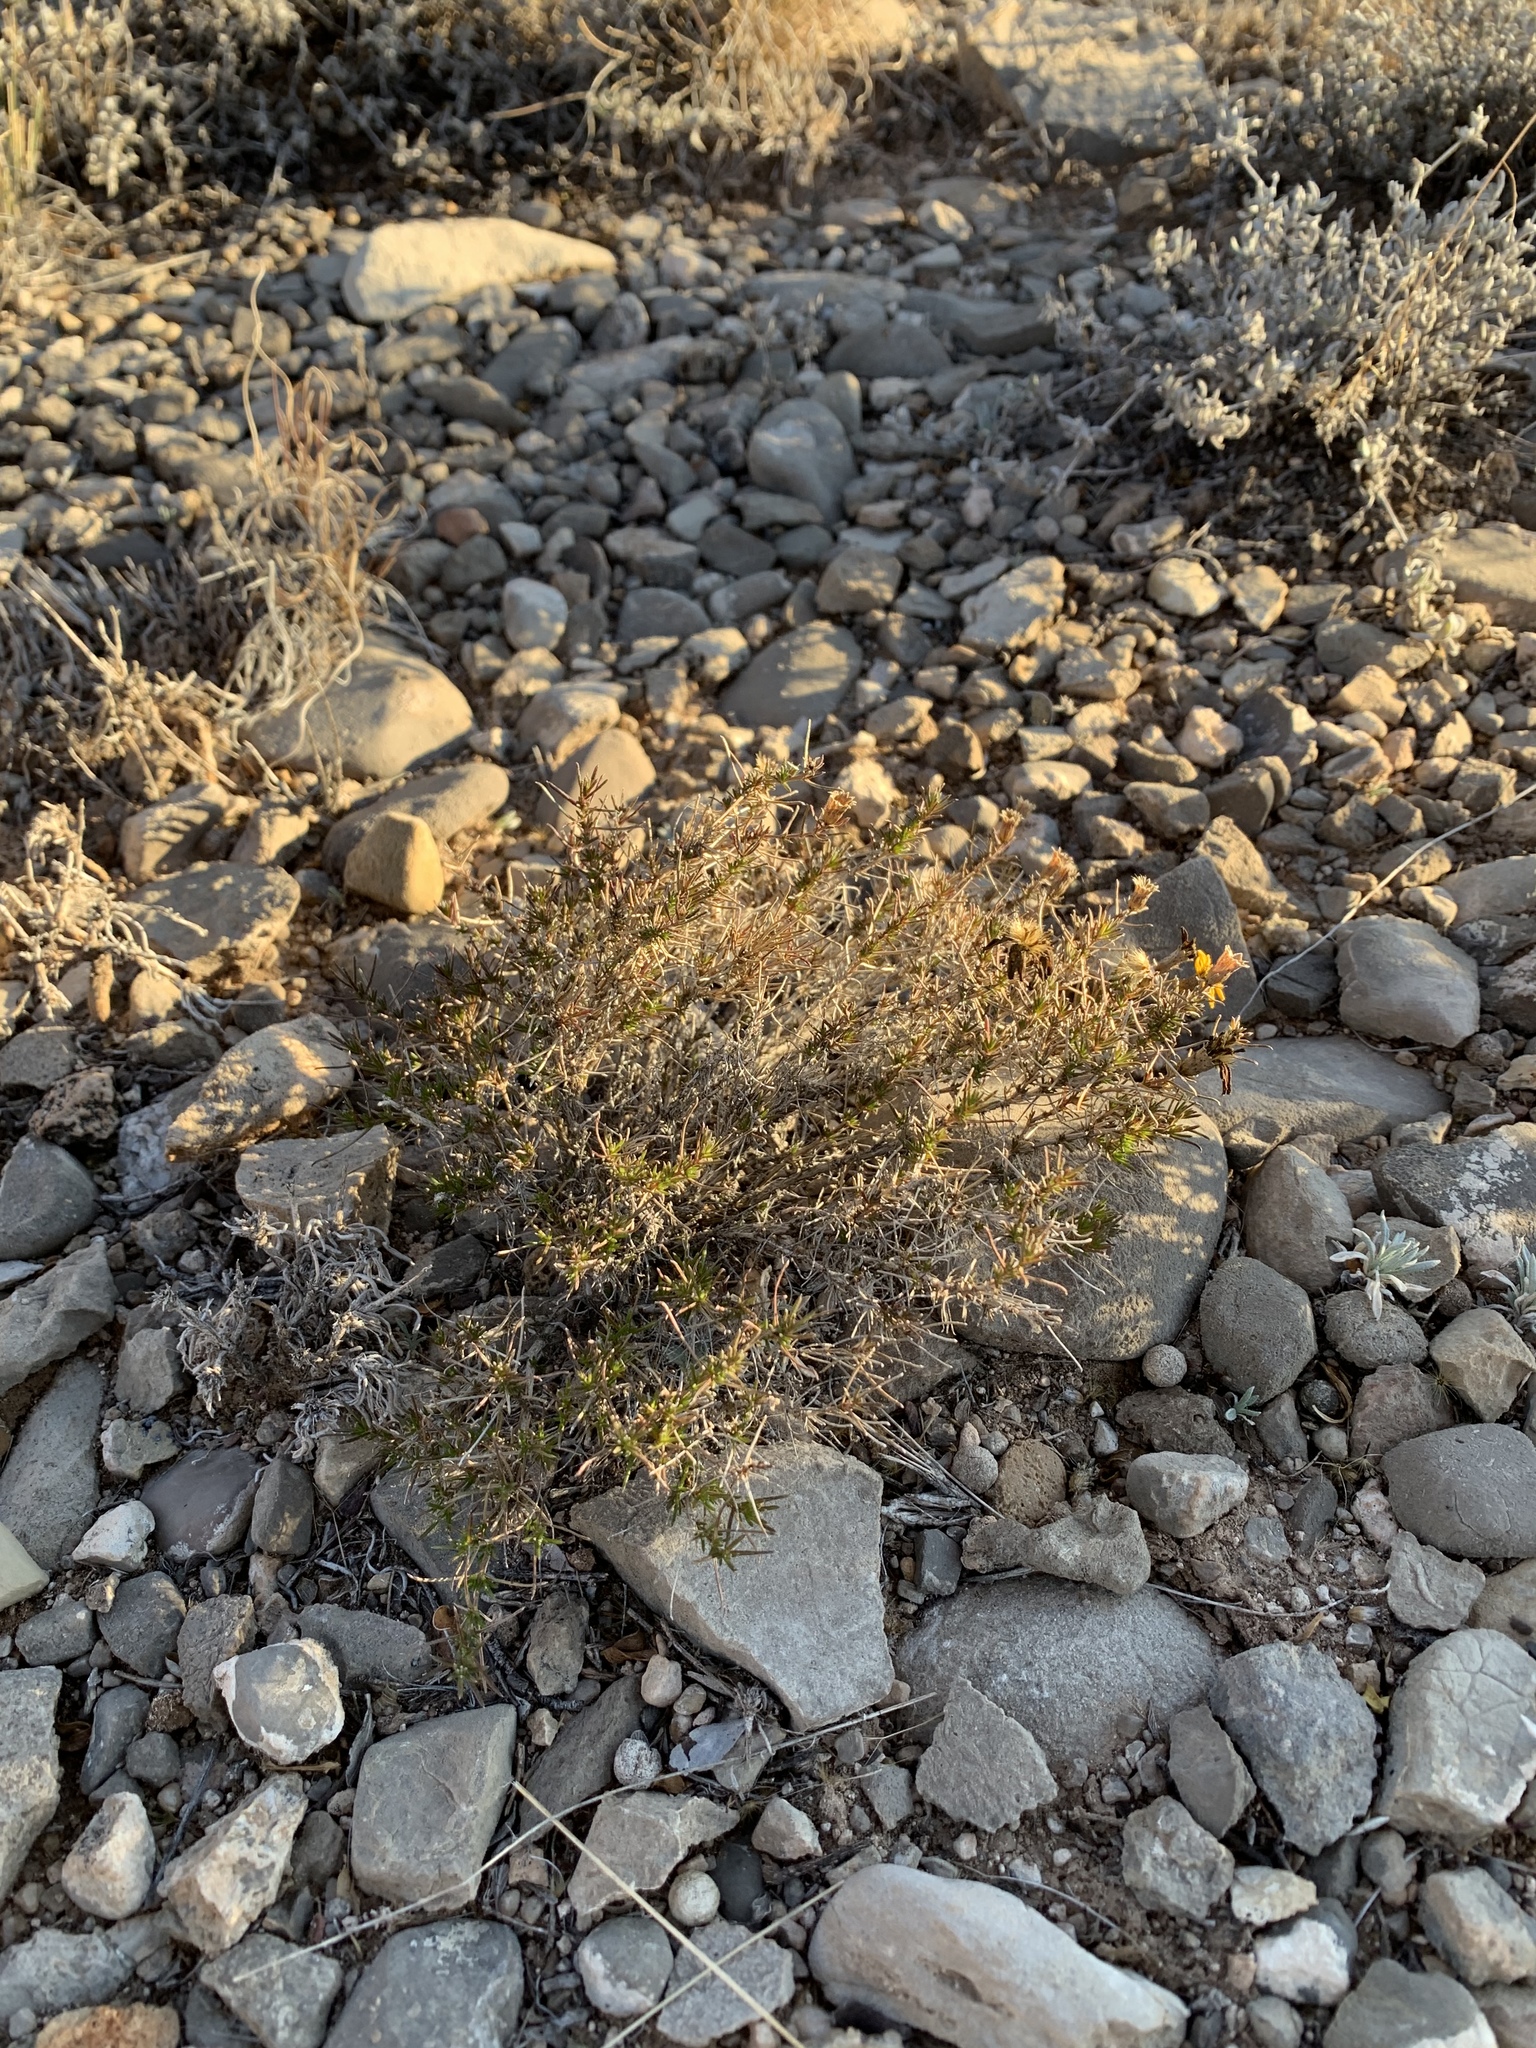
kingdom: Plantae
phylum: Tracheophyta
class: Magnoliopsida
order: Asterales
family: Asteraceae
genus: Thymophylla
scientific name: Thymophylla acerosa
